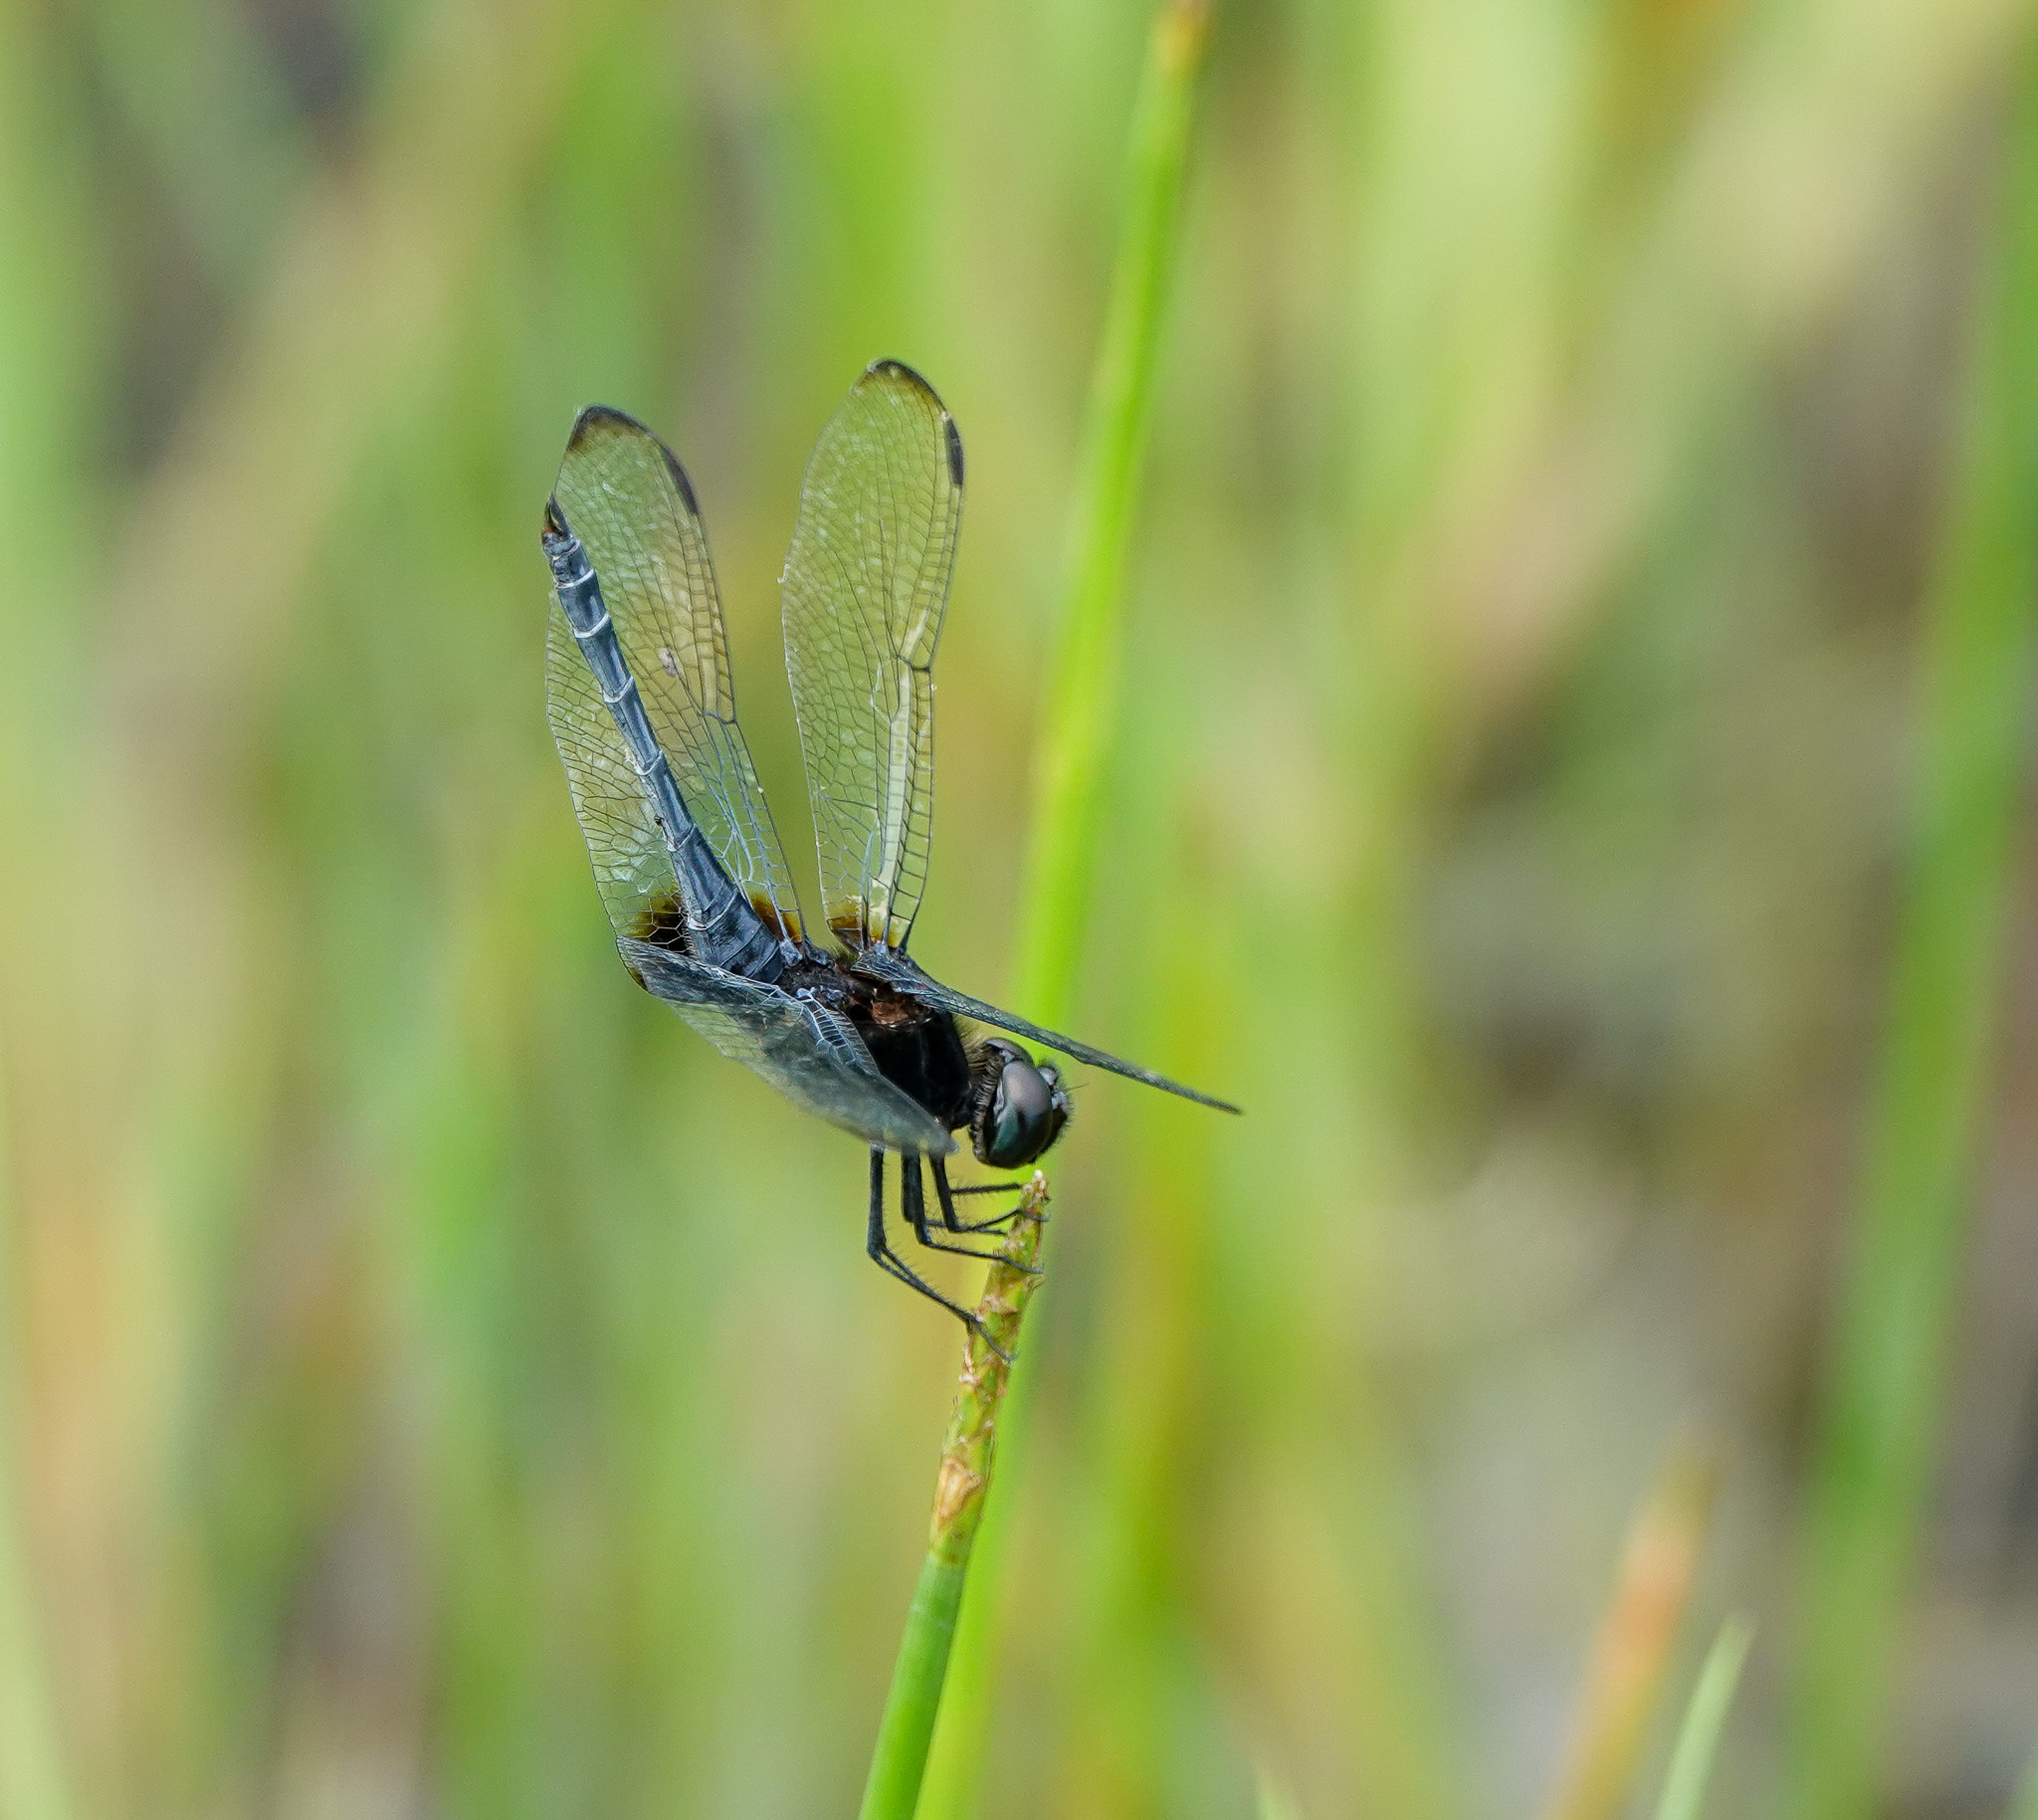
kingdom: Animalia
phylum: Arthropoda
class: Insecta
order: Odonata
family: Libellulidae
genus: Indothemis
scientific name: Indothemis limbata
